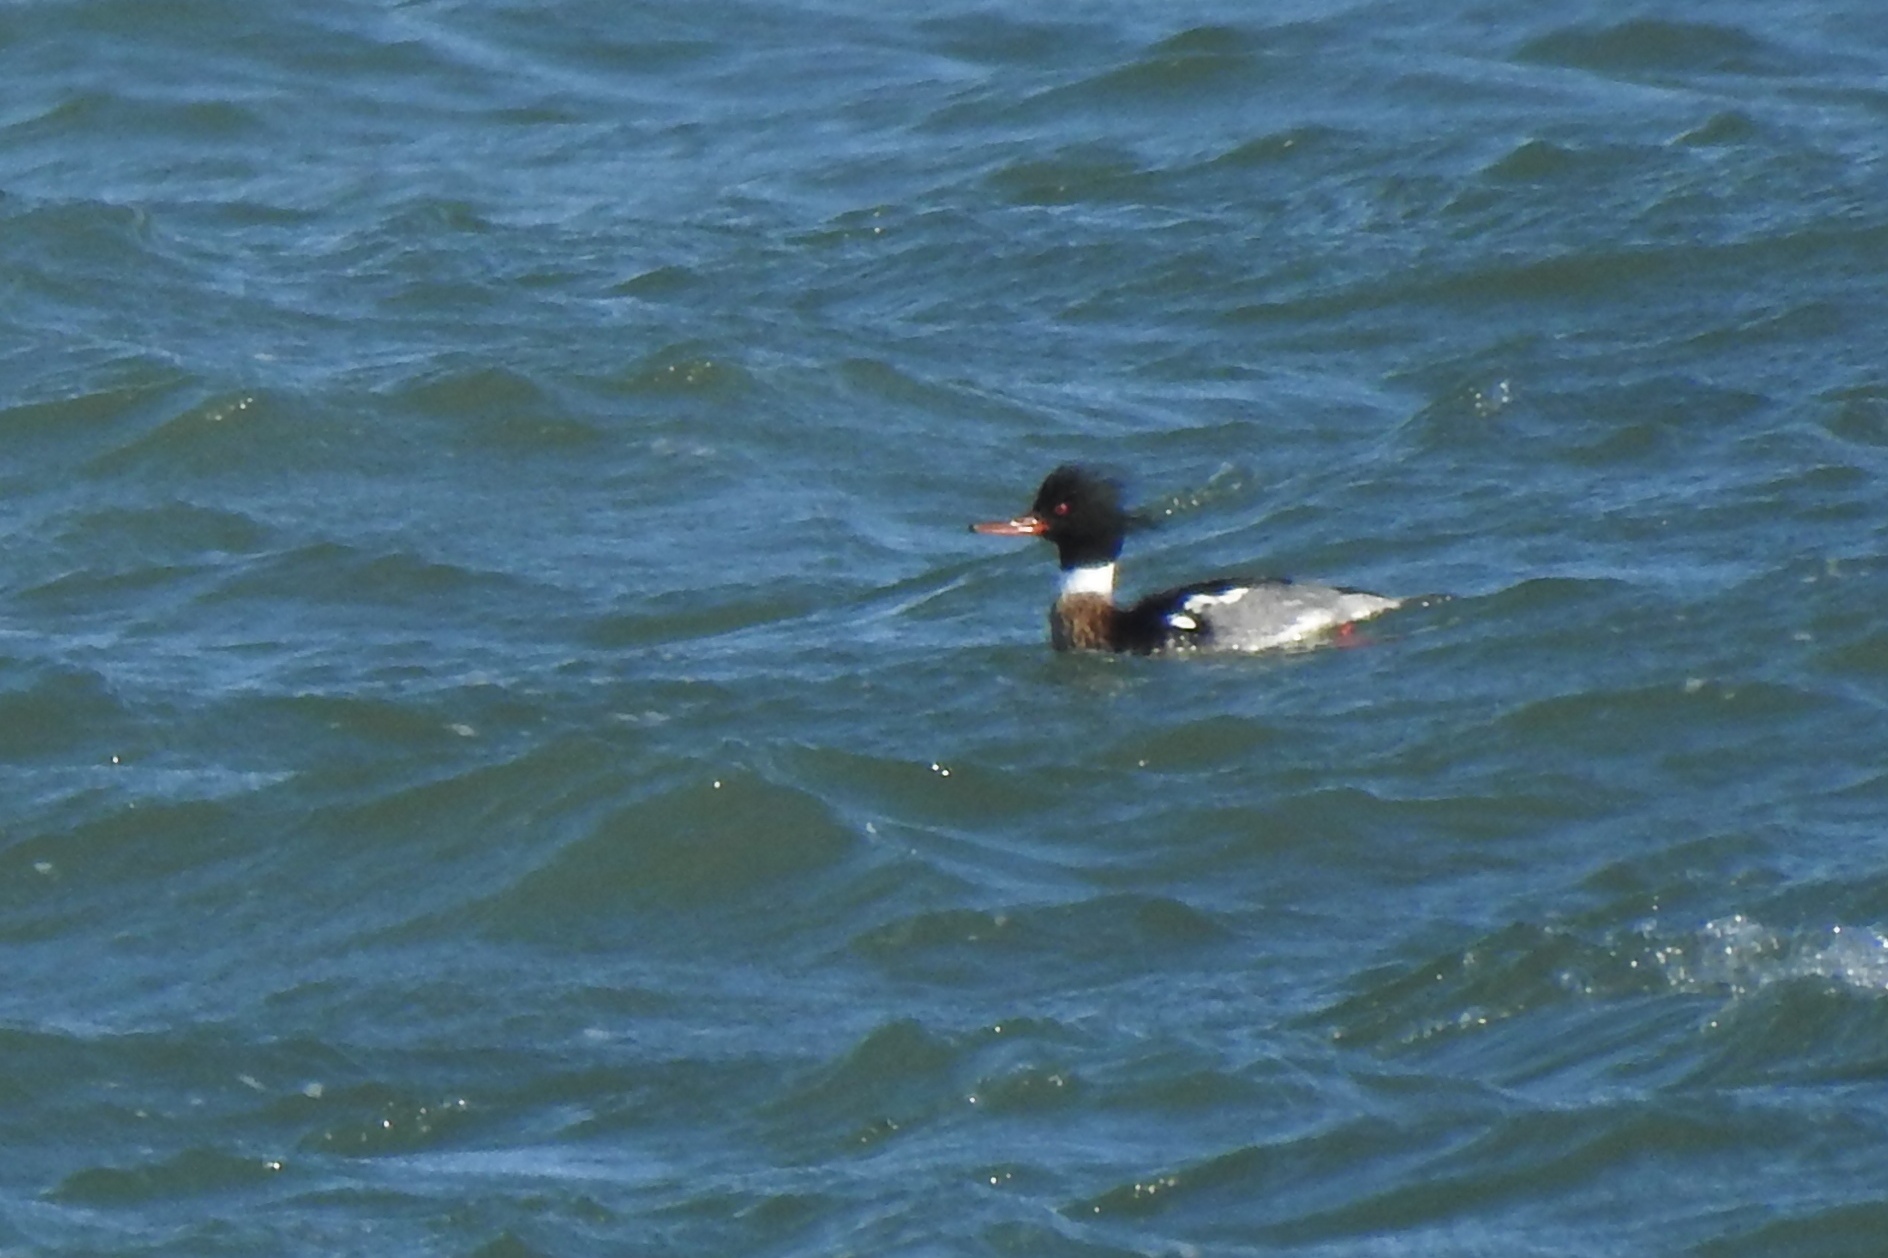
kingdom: Animalia
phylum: Chordata
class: Aves
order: Anseriformes
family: Anatidae
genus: Mergus
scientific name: Mergus serrator
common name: Red-breasted merganser
